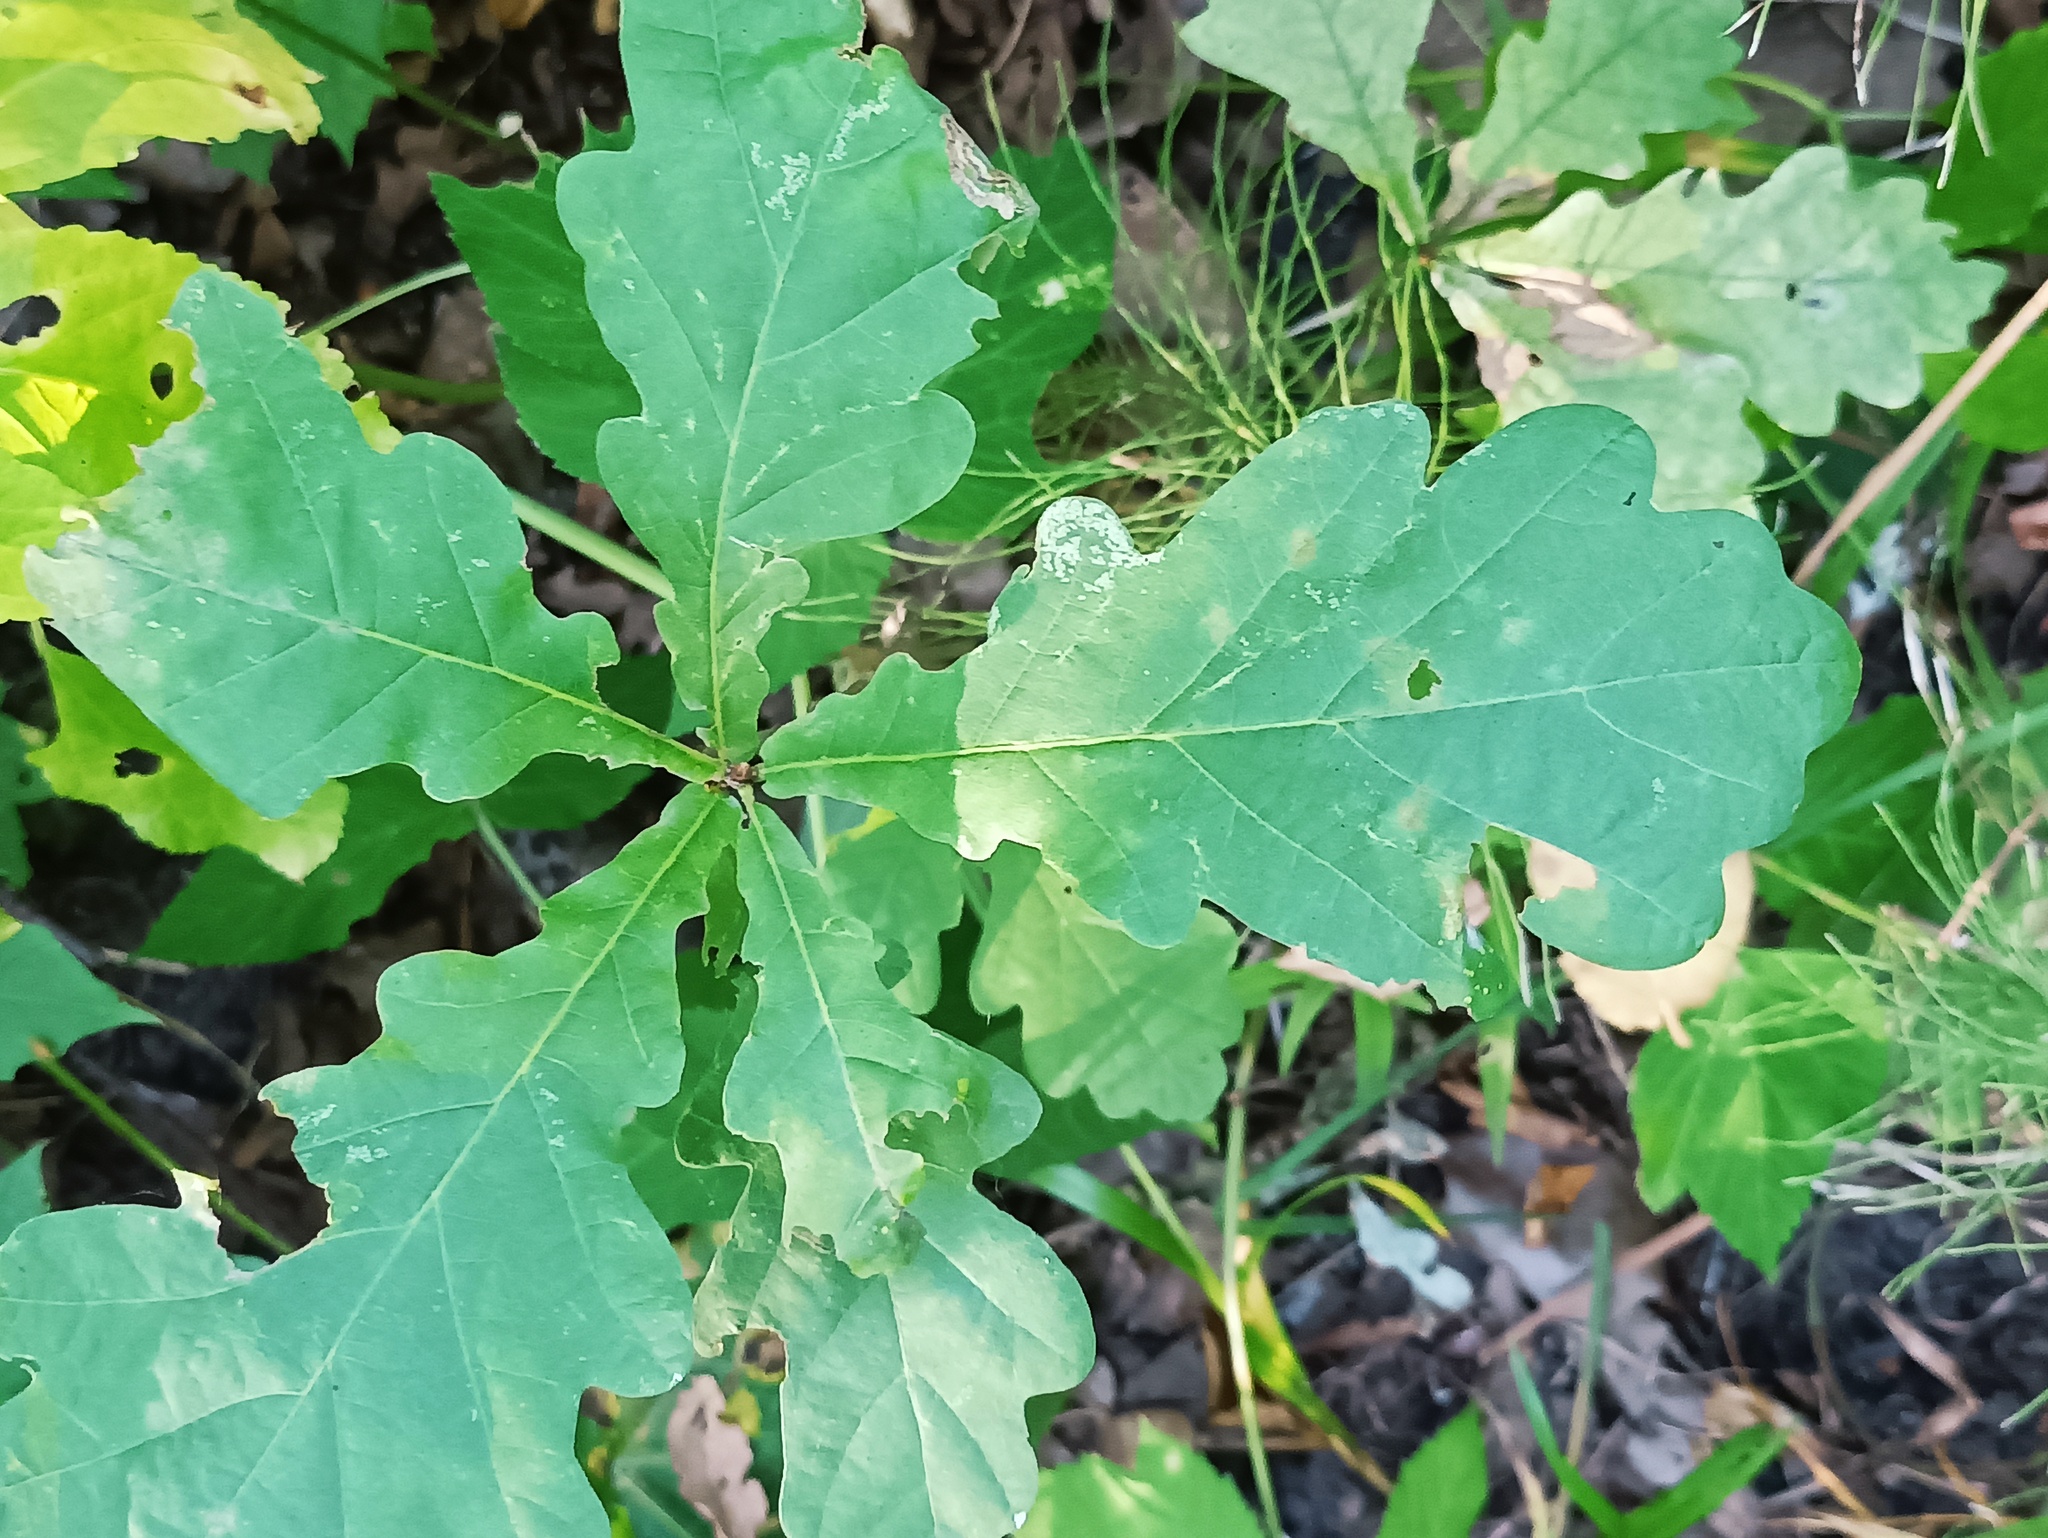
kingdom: Plantae
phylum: Tracheophyta
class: Magnoliopsida
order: Fagales
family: Fagaceae
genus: Quercus
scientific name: Quercus robur
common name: Pedunculate oak
